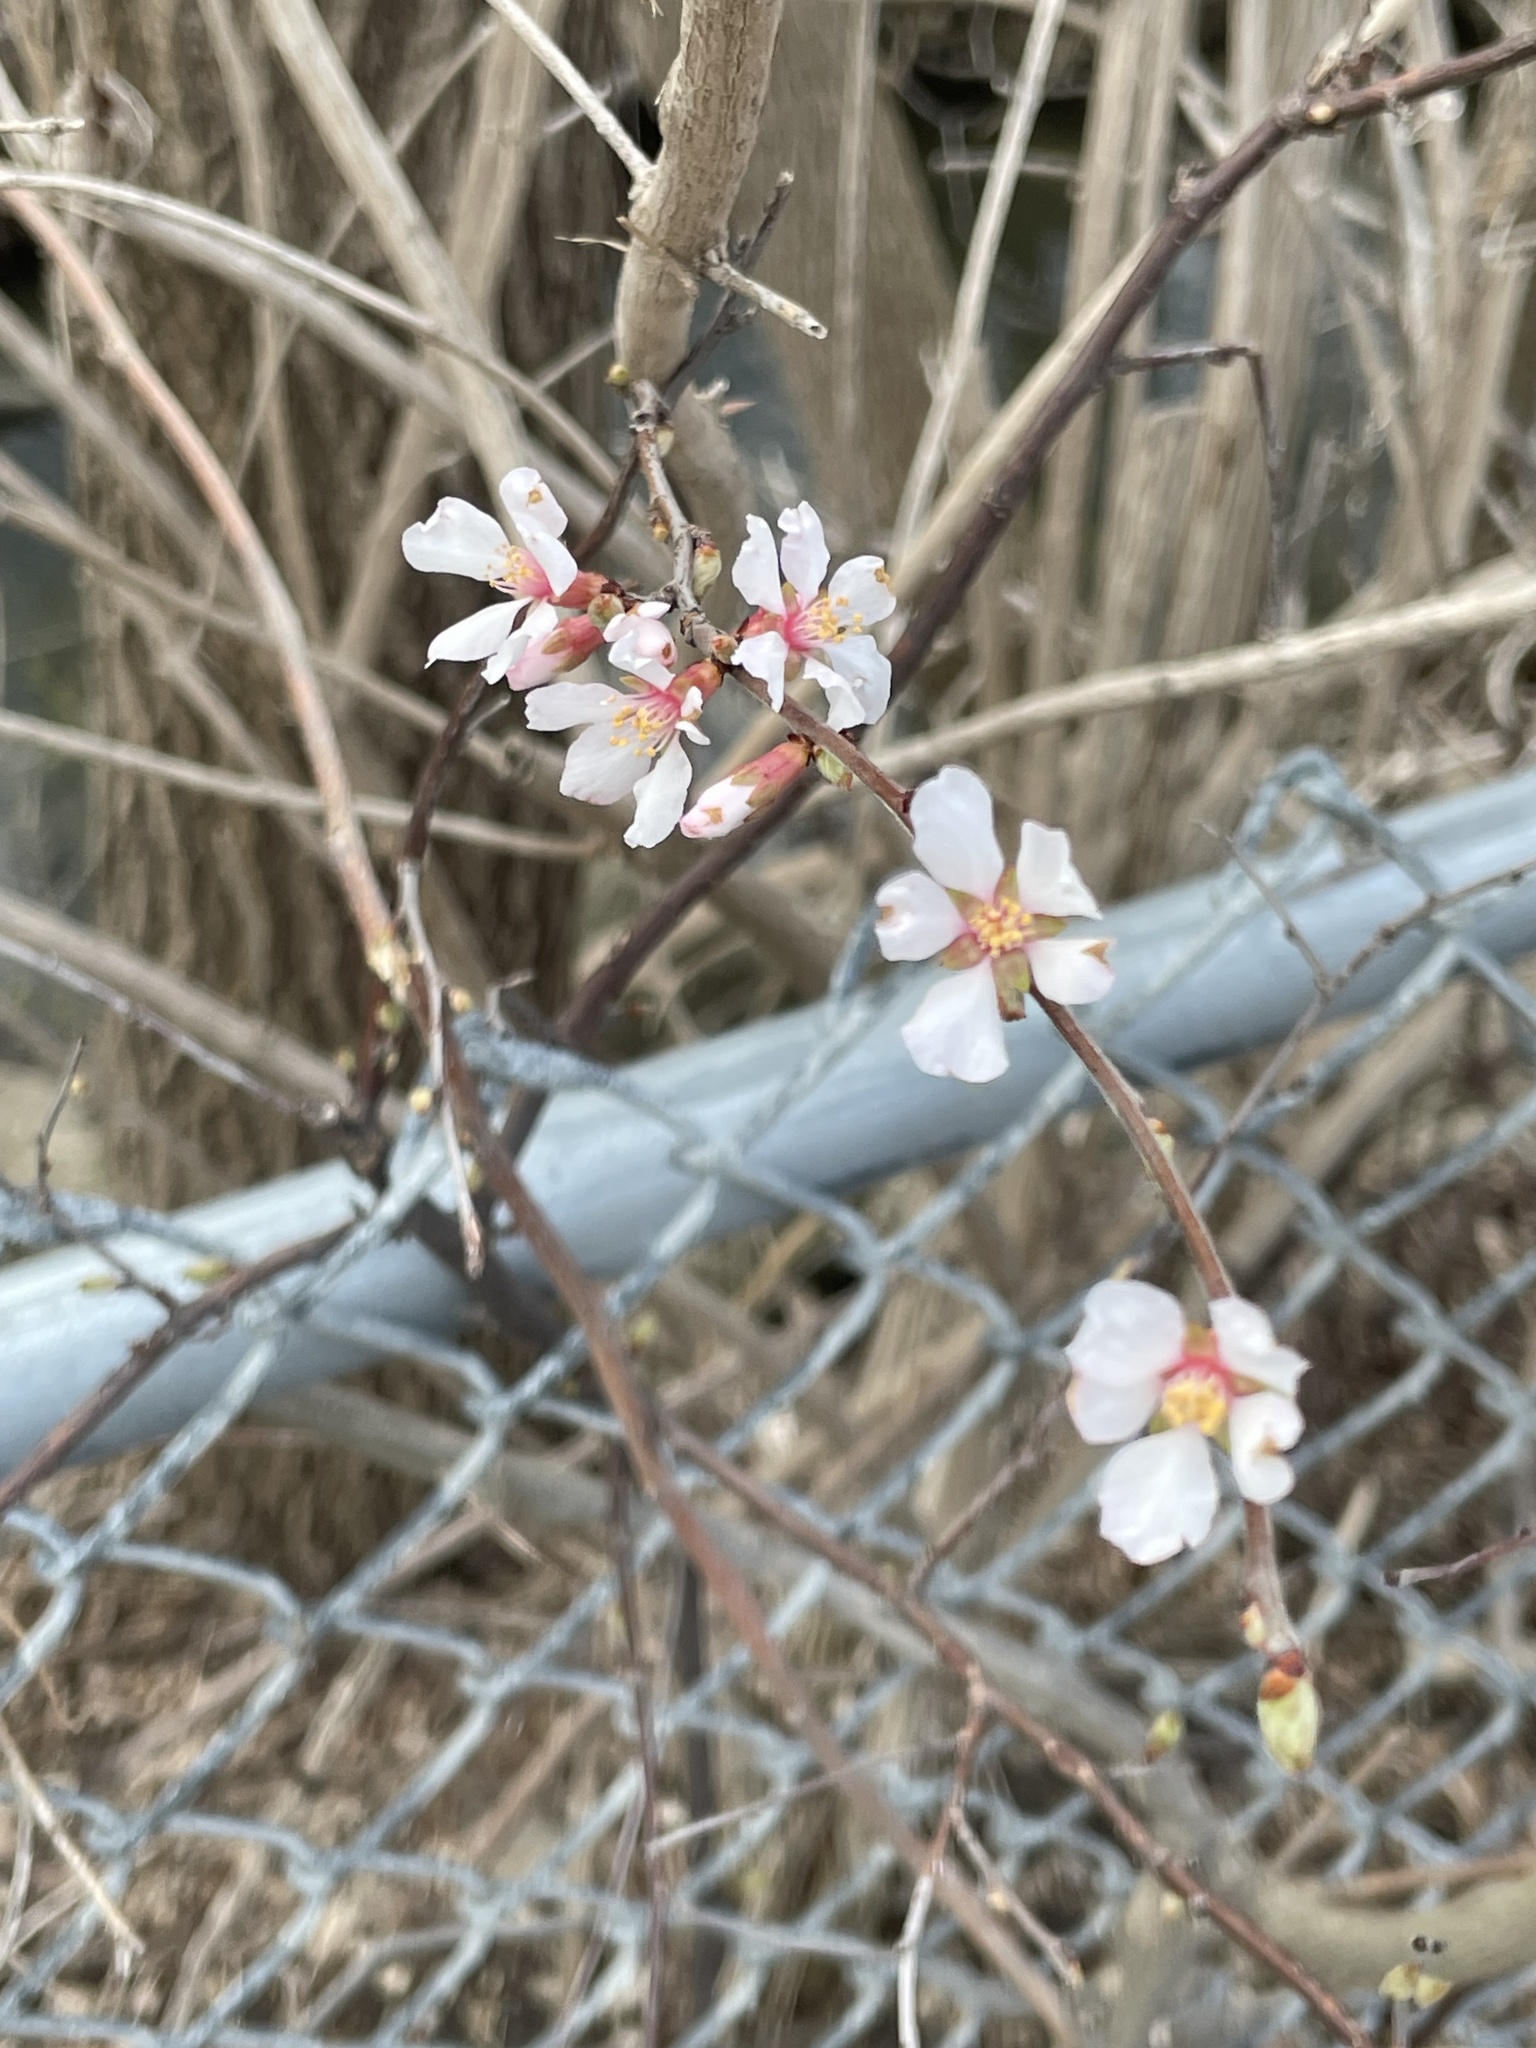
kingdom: Plantae
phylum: Tracheophyta
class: Magnoliopsida
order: Rosales
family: Rosaceae
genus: Prunus
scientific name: Prunus tomentosa
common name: Nanking cherry
